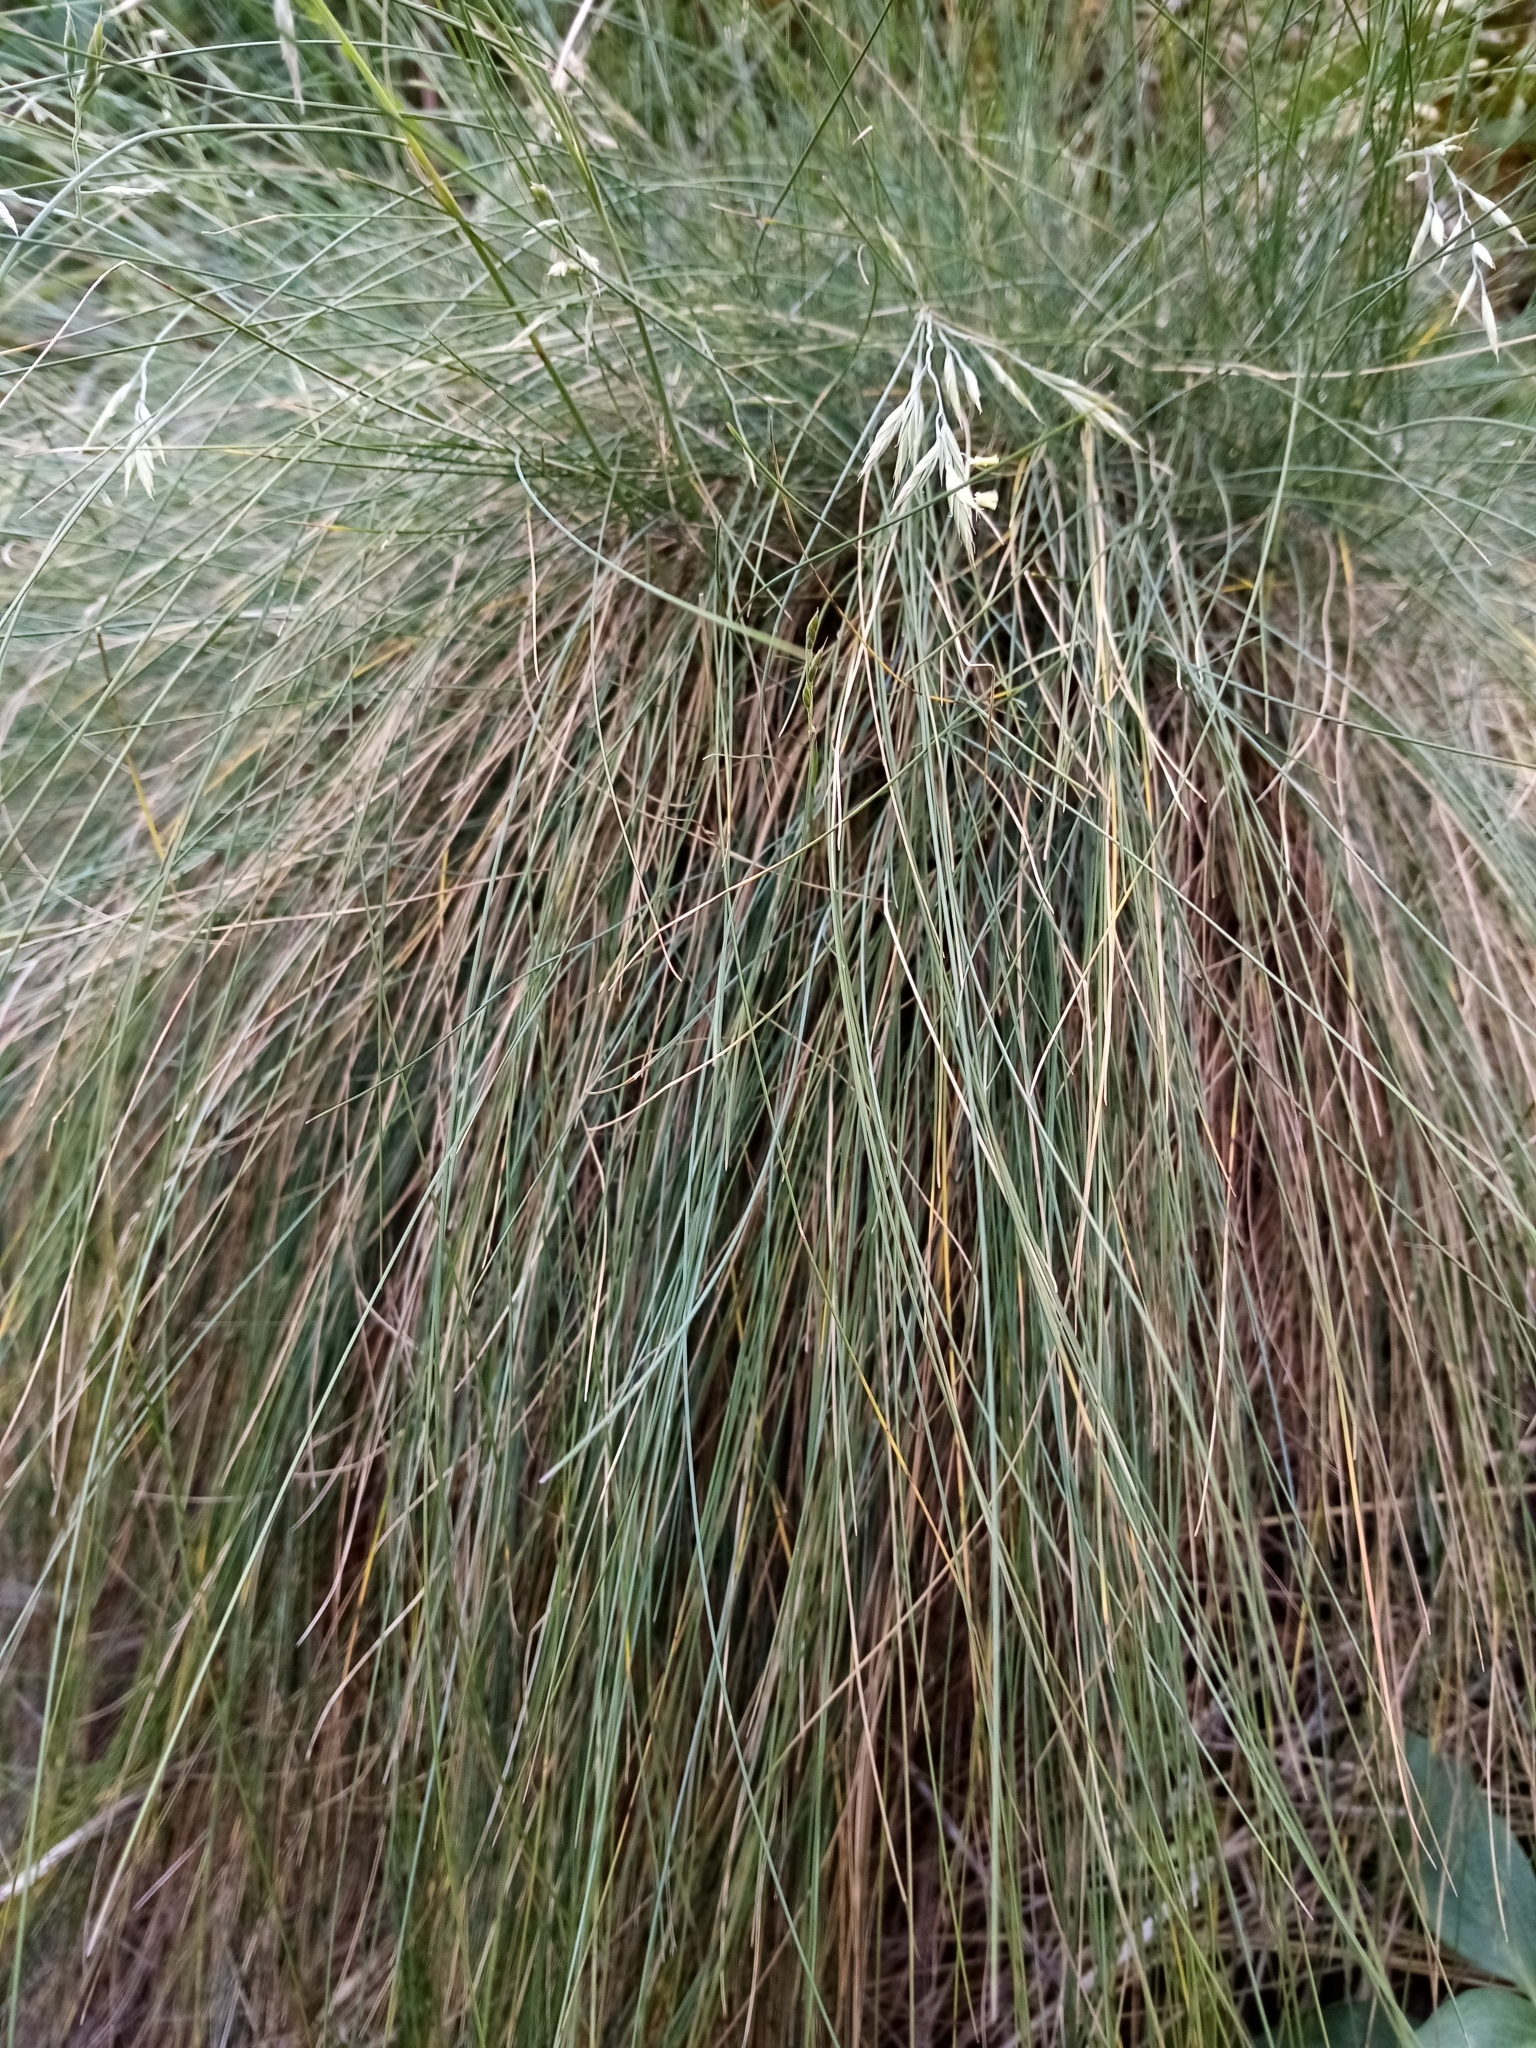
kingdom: Plantae
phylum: Tracheophyta
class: Liliopsida
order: Poales
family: Poaceae
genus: Festuca
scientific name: Festuca actae
